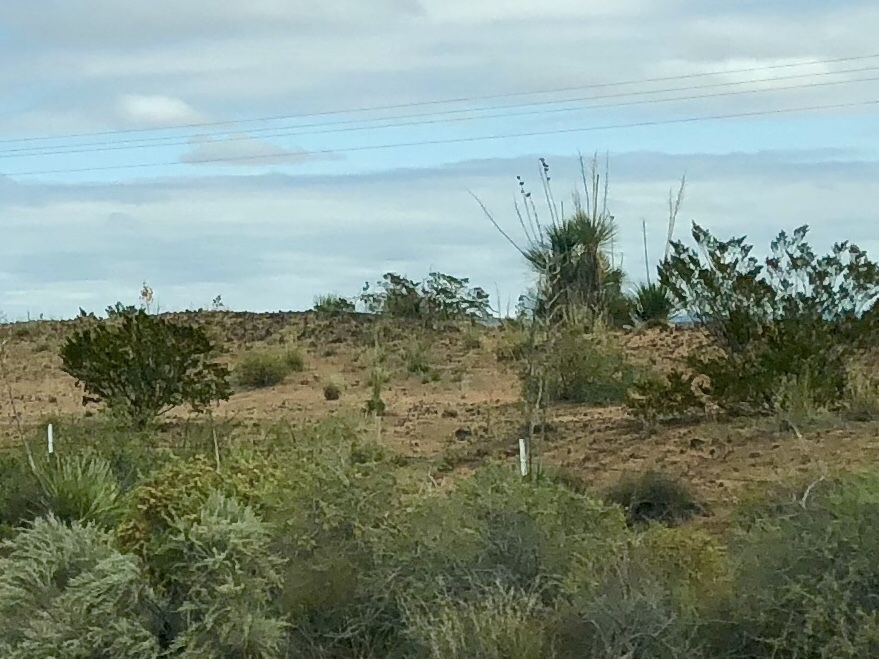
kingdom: Plantae
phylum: Tracheophyta
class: Magnoliopsida
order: Zygophyllales
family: Zygophyllaceae
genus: Larrea
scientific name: Larrea tridentata
